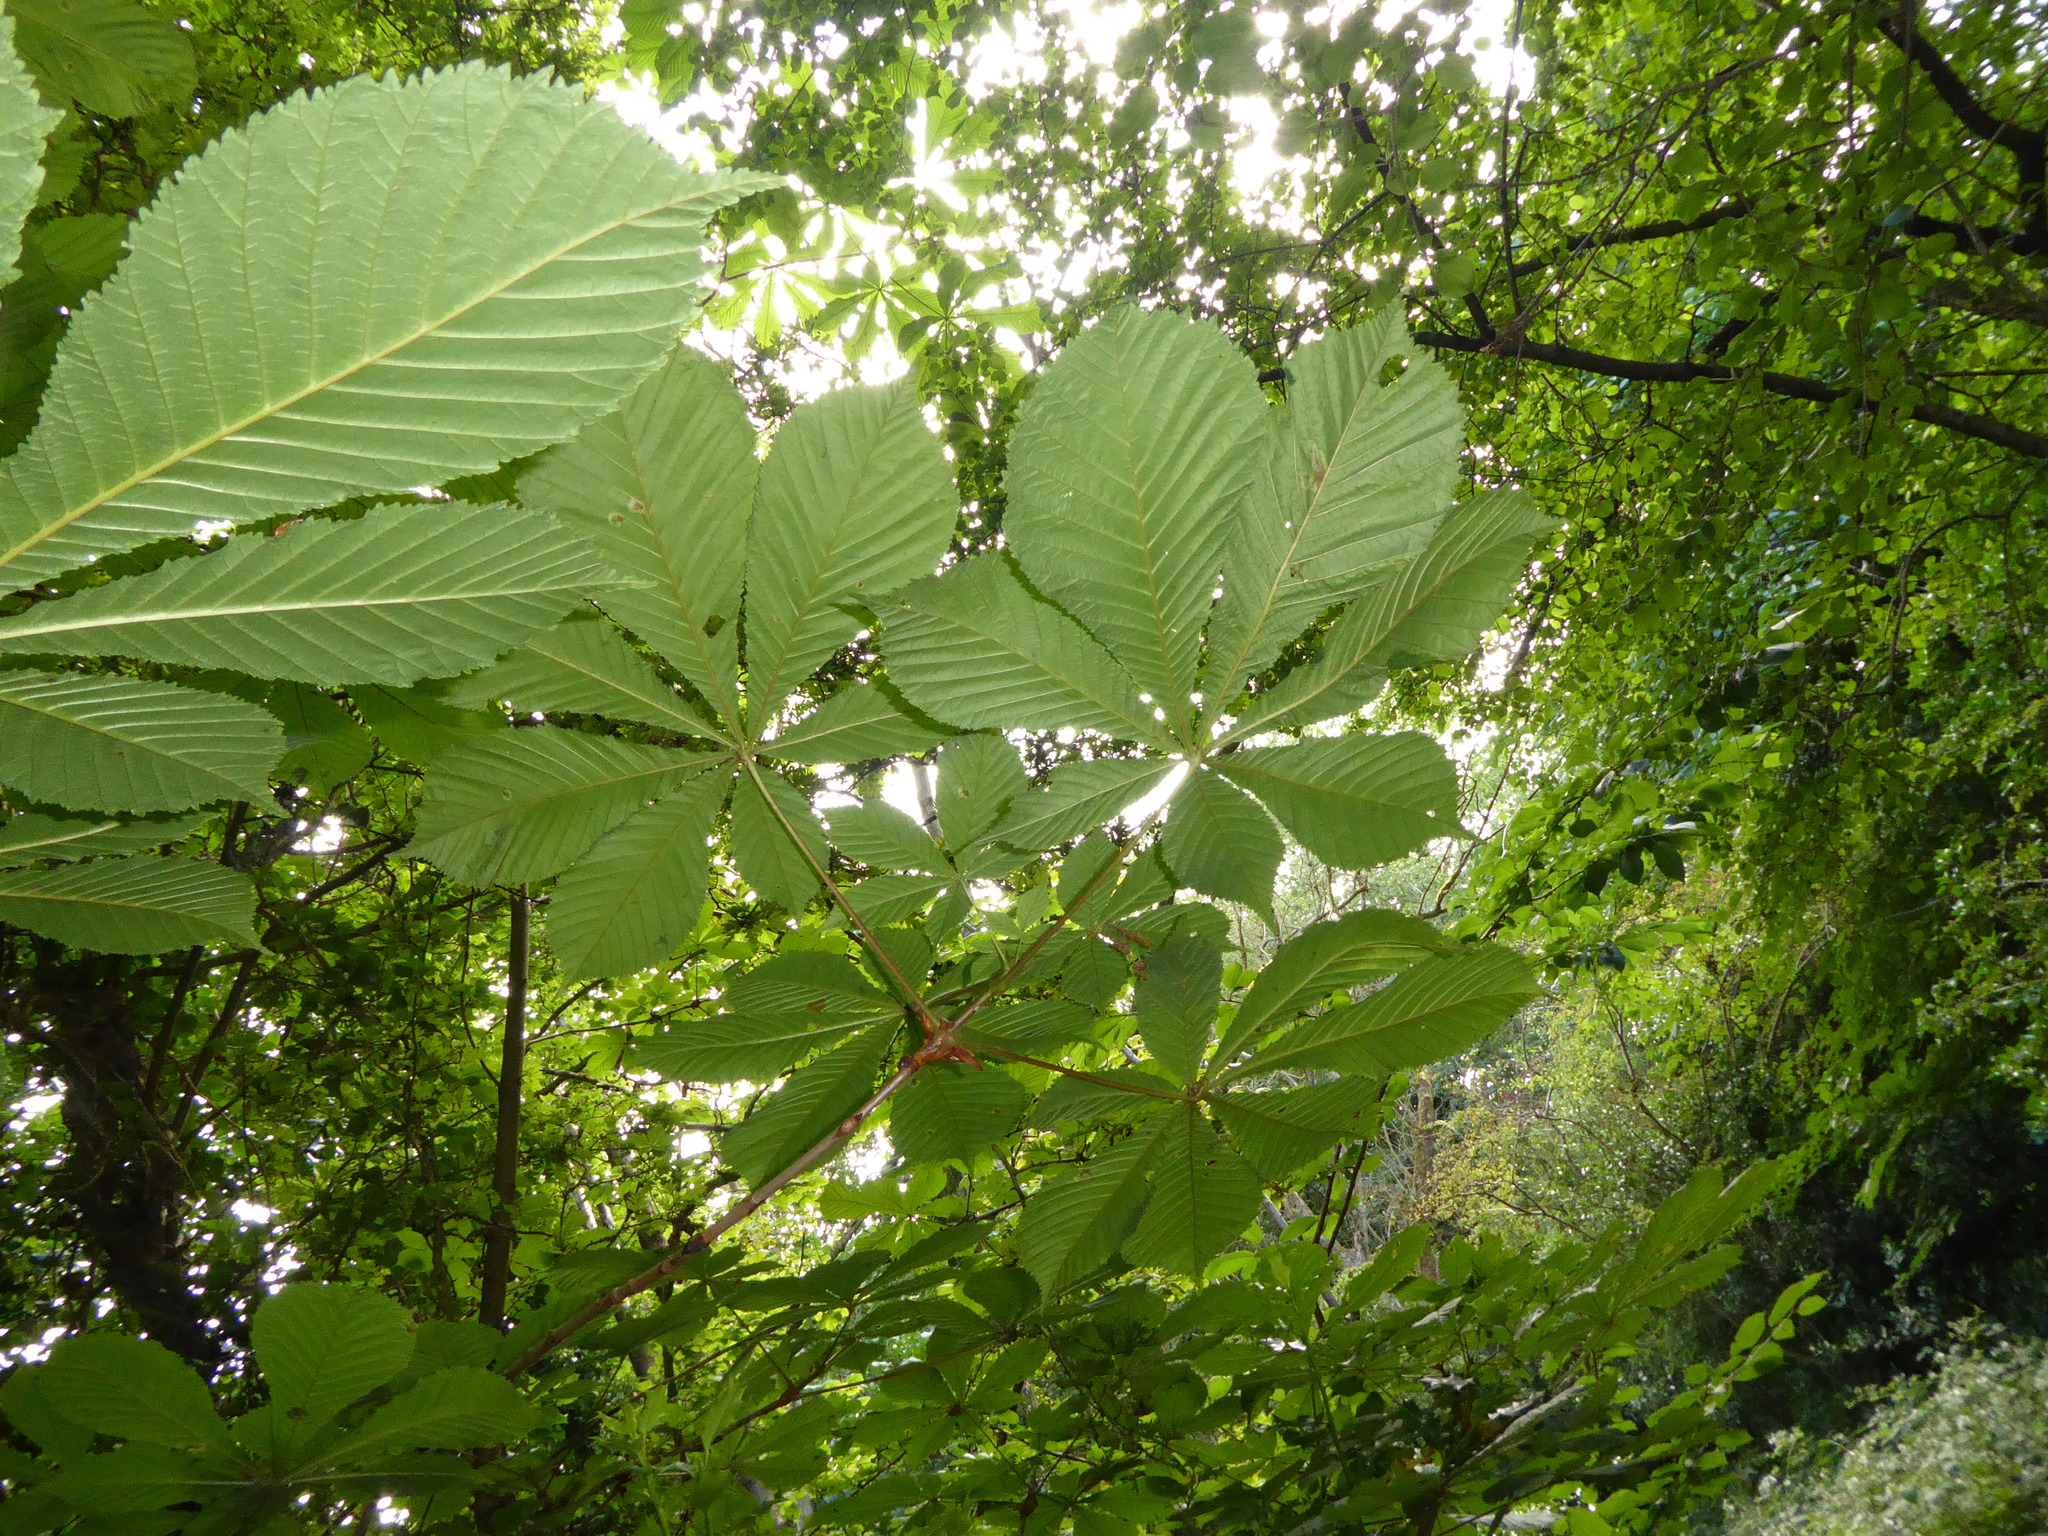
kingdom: Plantae
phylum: Tracheophyta
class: Magnoliopsida
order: Sapindales
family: Sapindaceae
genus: Aesculus
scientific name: Aesculus hippocastanum
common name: Horse-chestnut
